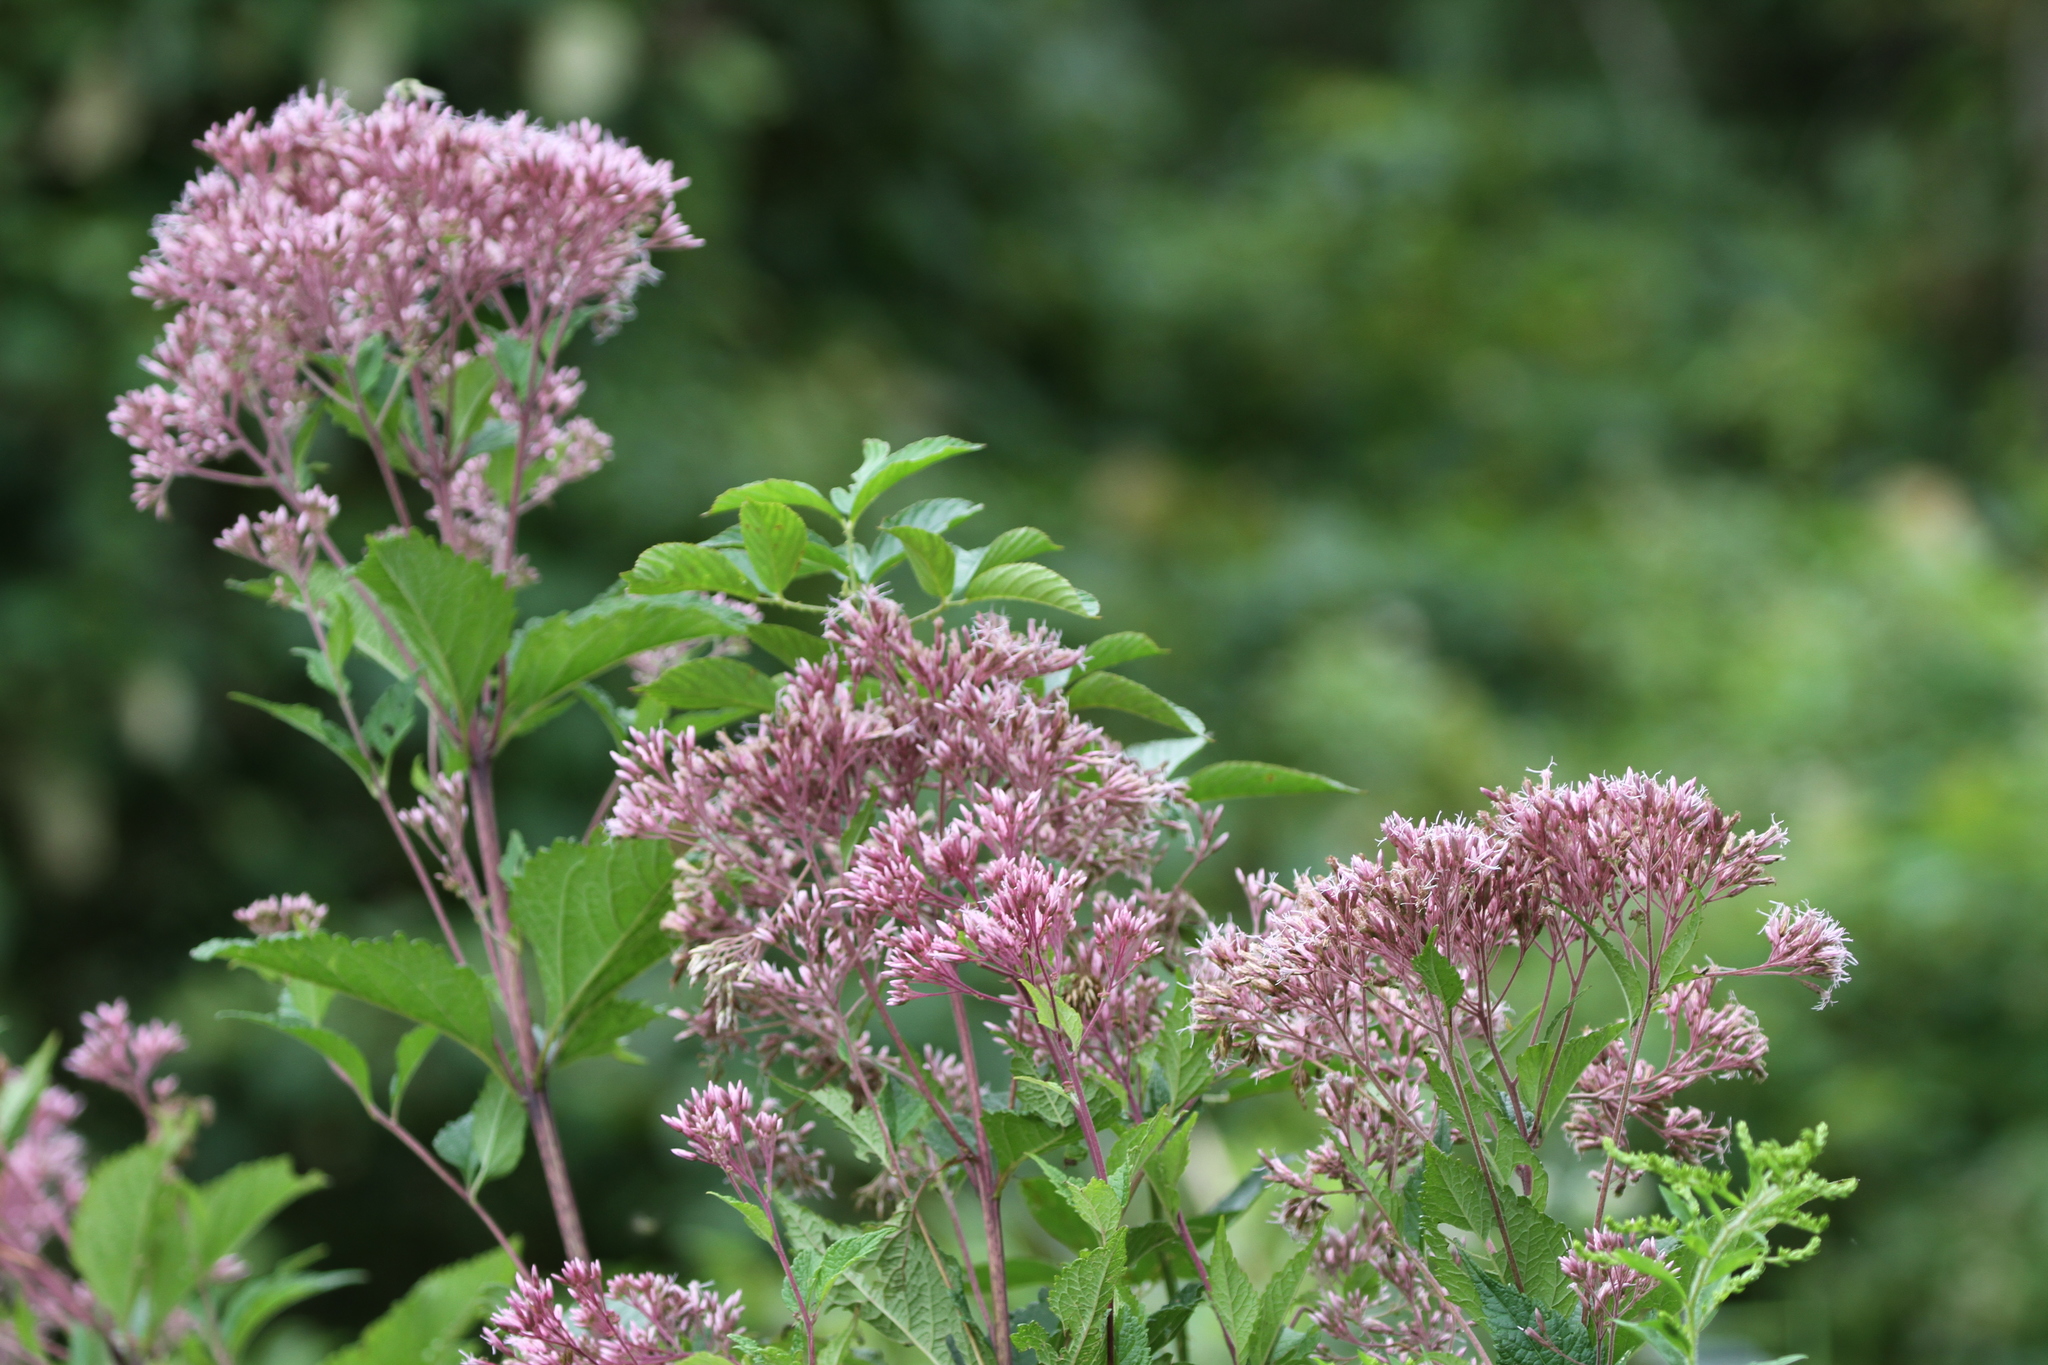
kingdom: Plantae
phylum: Tracheophyta
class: Magnoliopsida
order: Asterales
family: Asteraceae
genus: Eutrochium
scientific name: Eutrochium dubium
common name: Coastal plain joe pye weed
